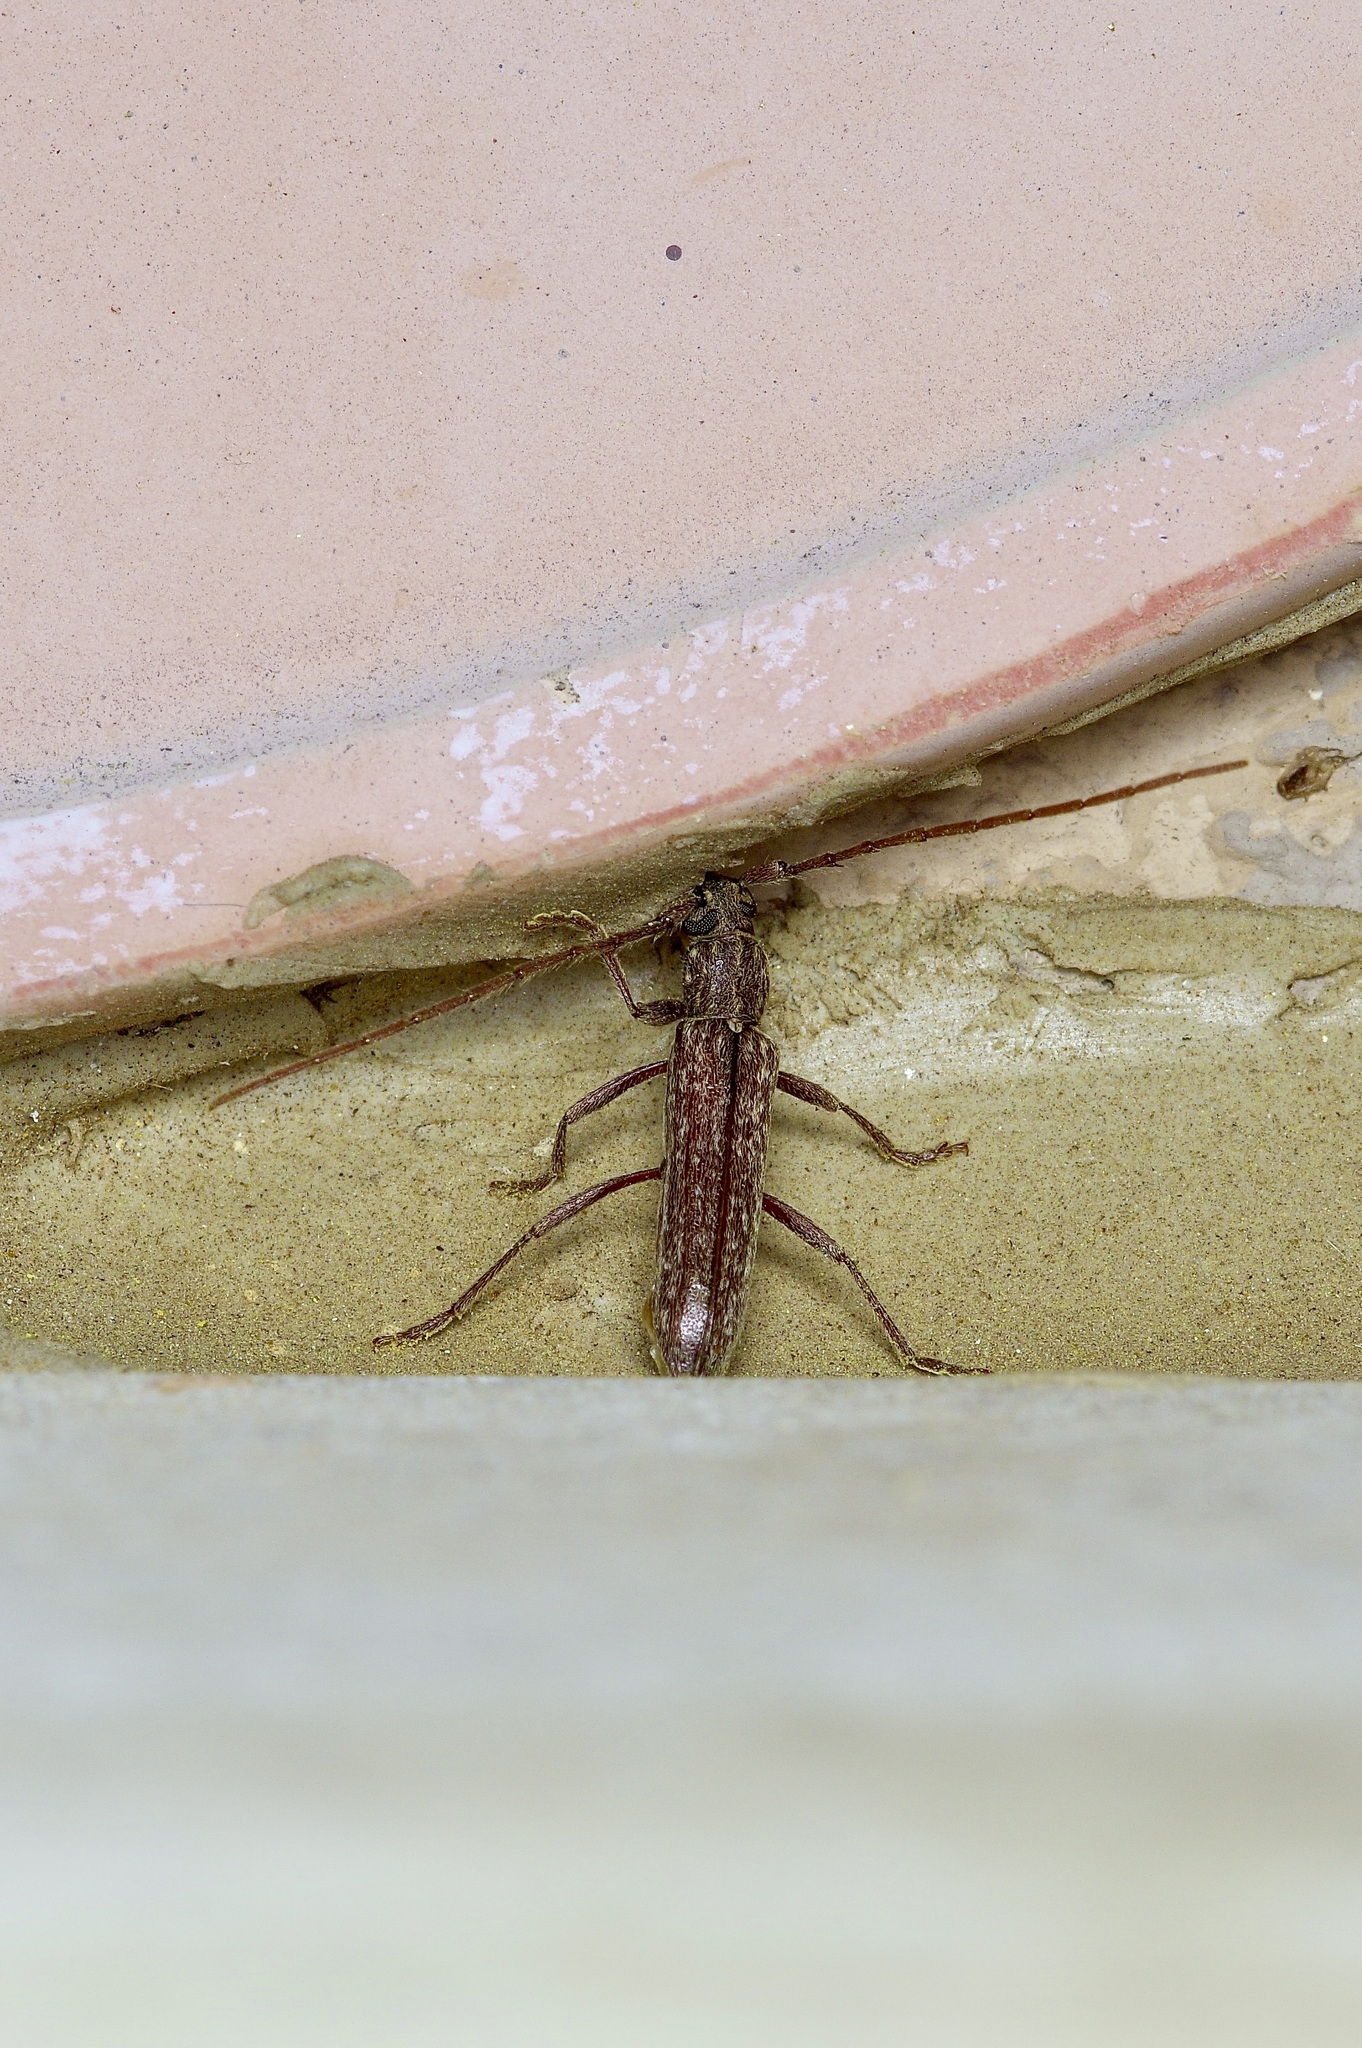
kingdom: Animalia
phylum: Arthropoda
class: Insecta
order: Coleoptera
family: Cerambycidae
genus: Anelaphus
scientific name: Anelaphus villosus
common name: Twig pruner
